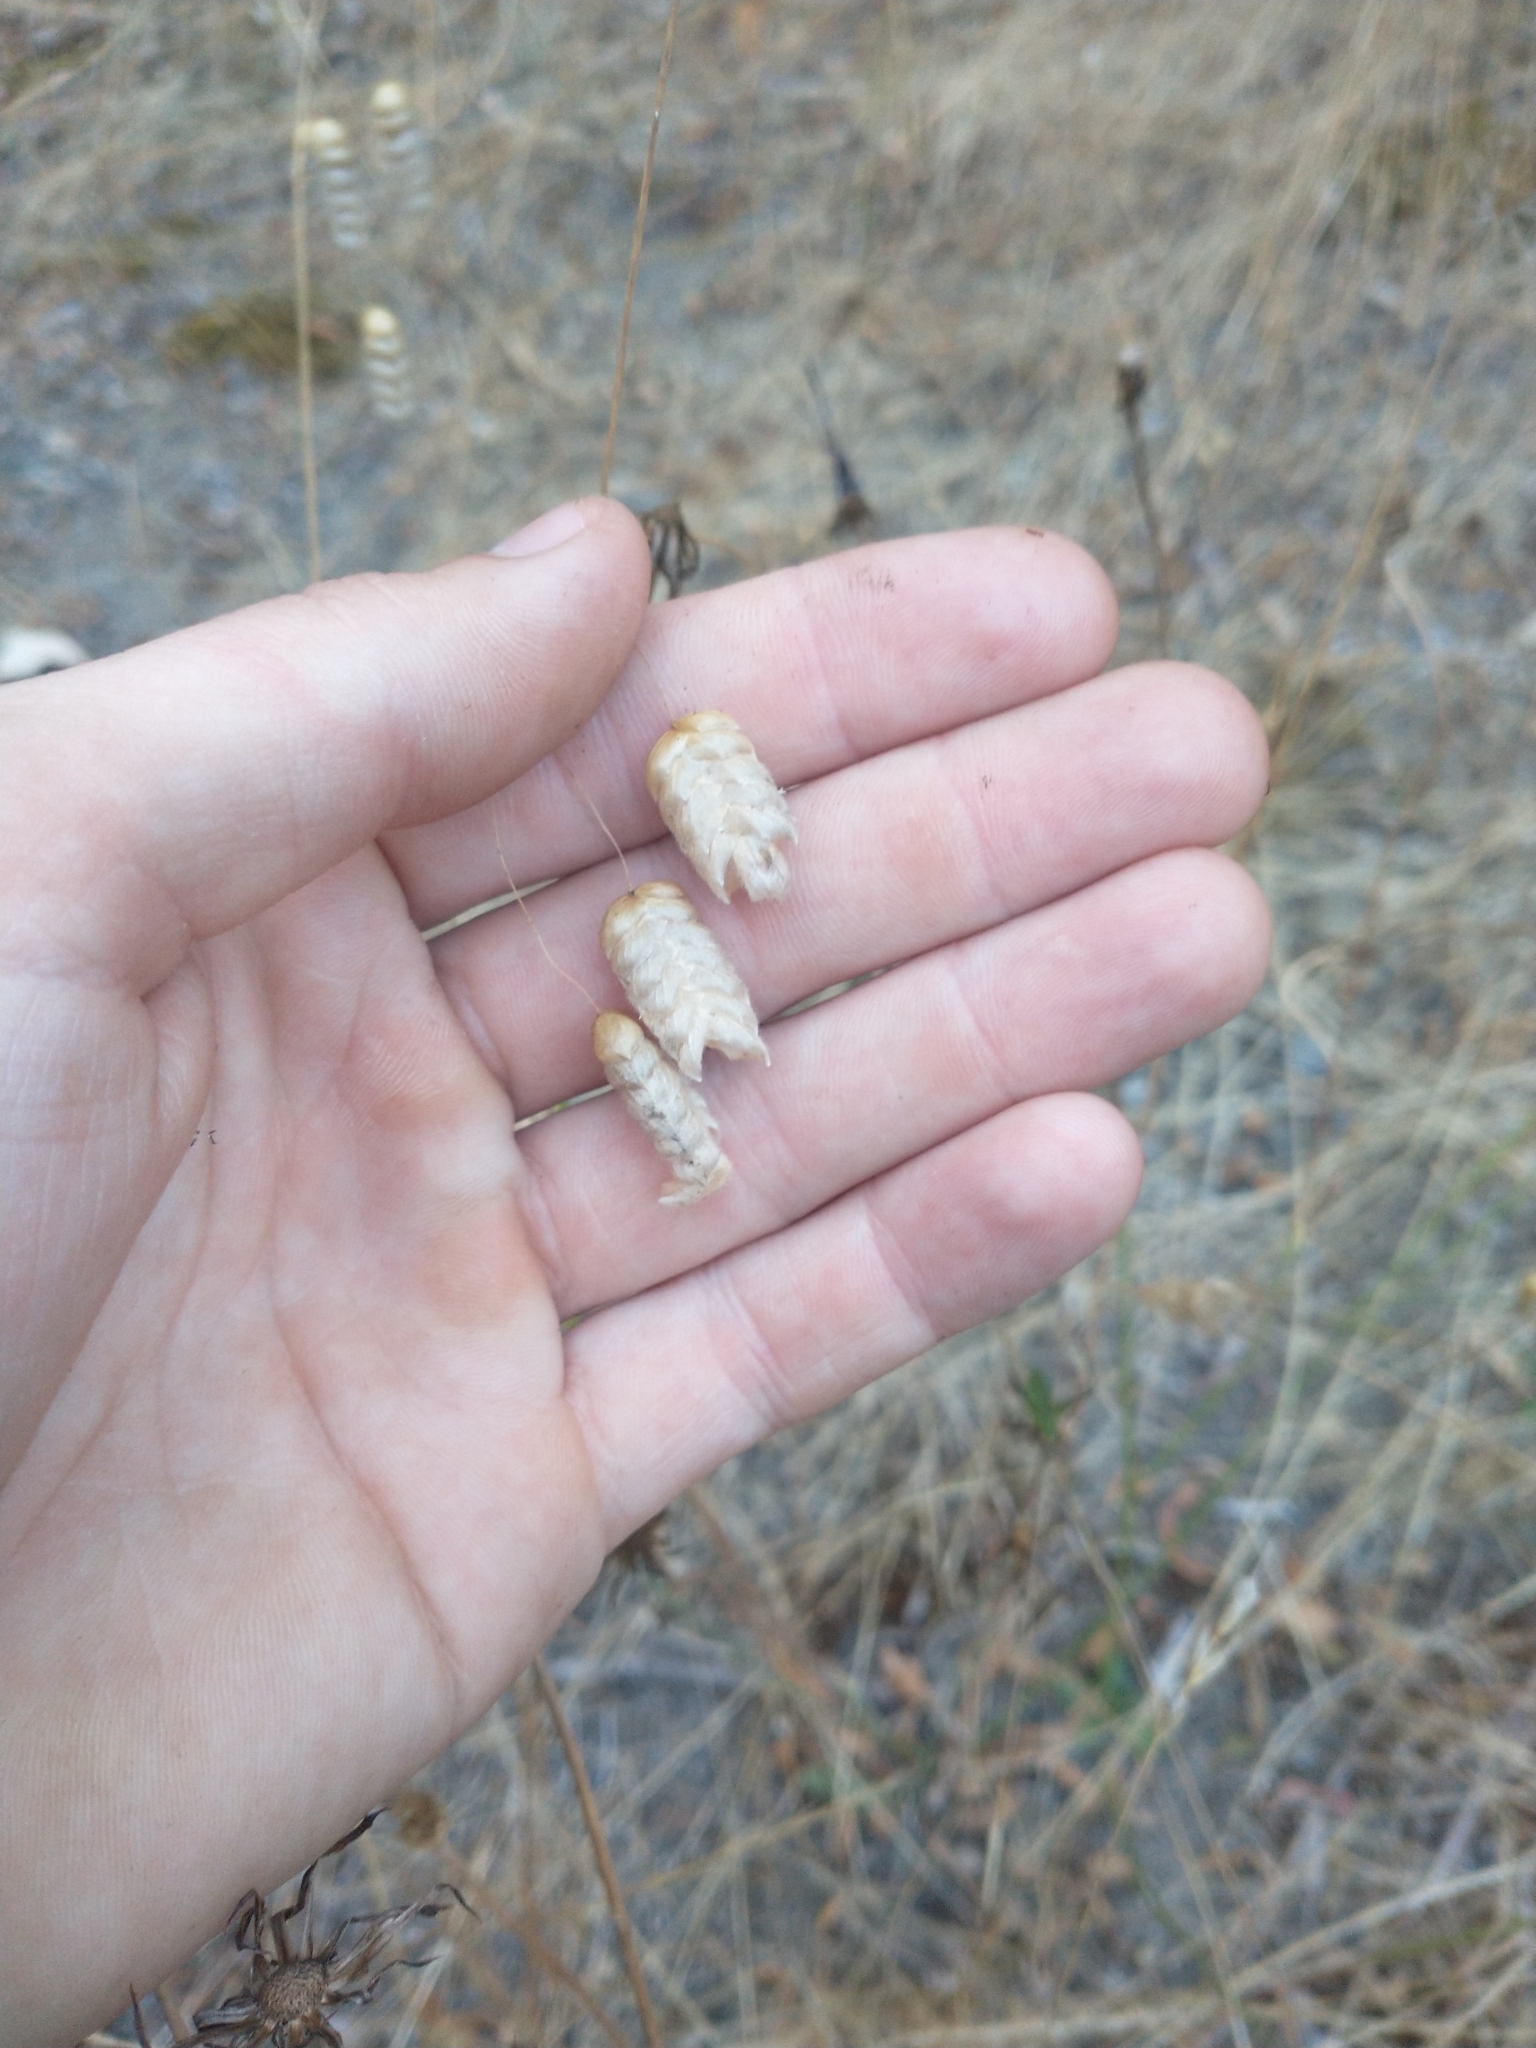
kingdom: Plantae
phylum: Tracheophyta
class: Liliopsida
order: Poales
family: Poaceae
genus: Briza
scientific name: Briza maxima
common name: Big quakinggrass
